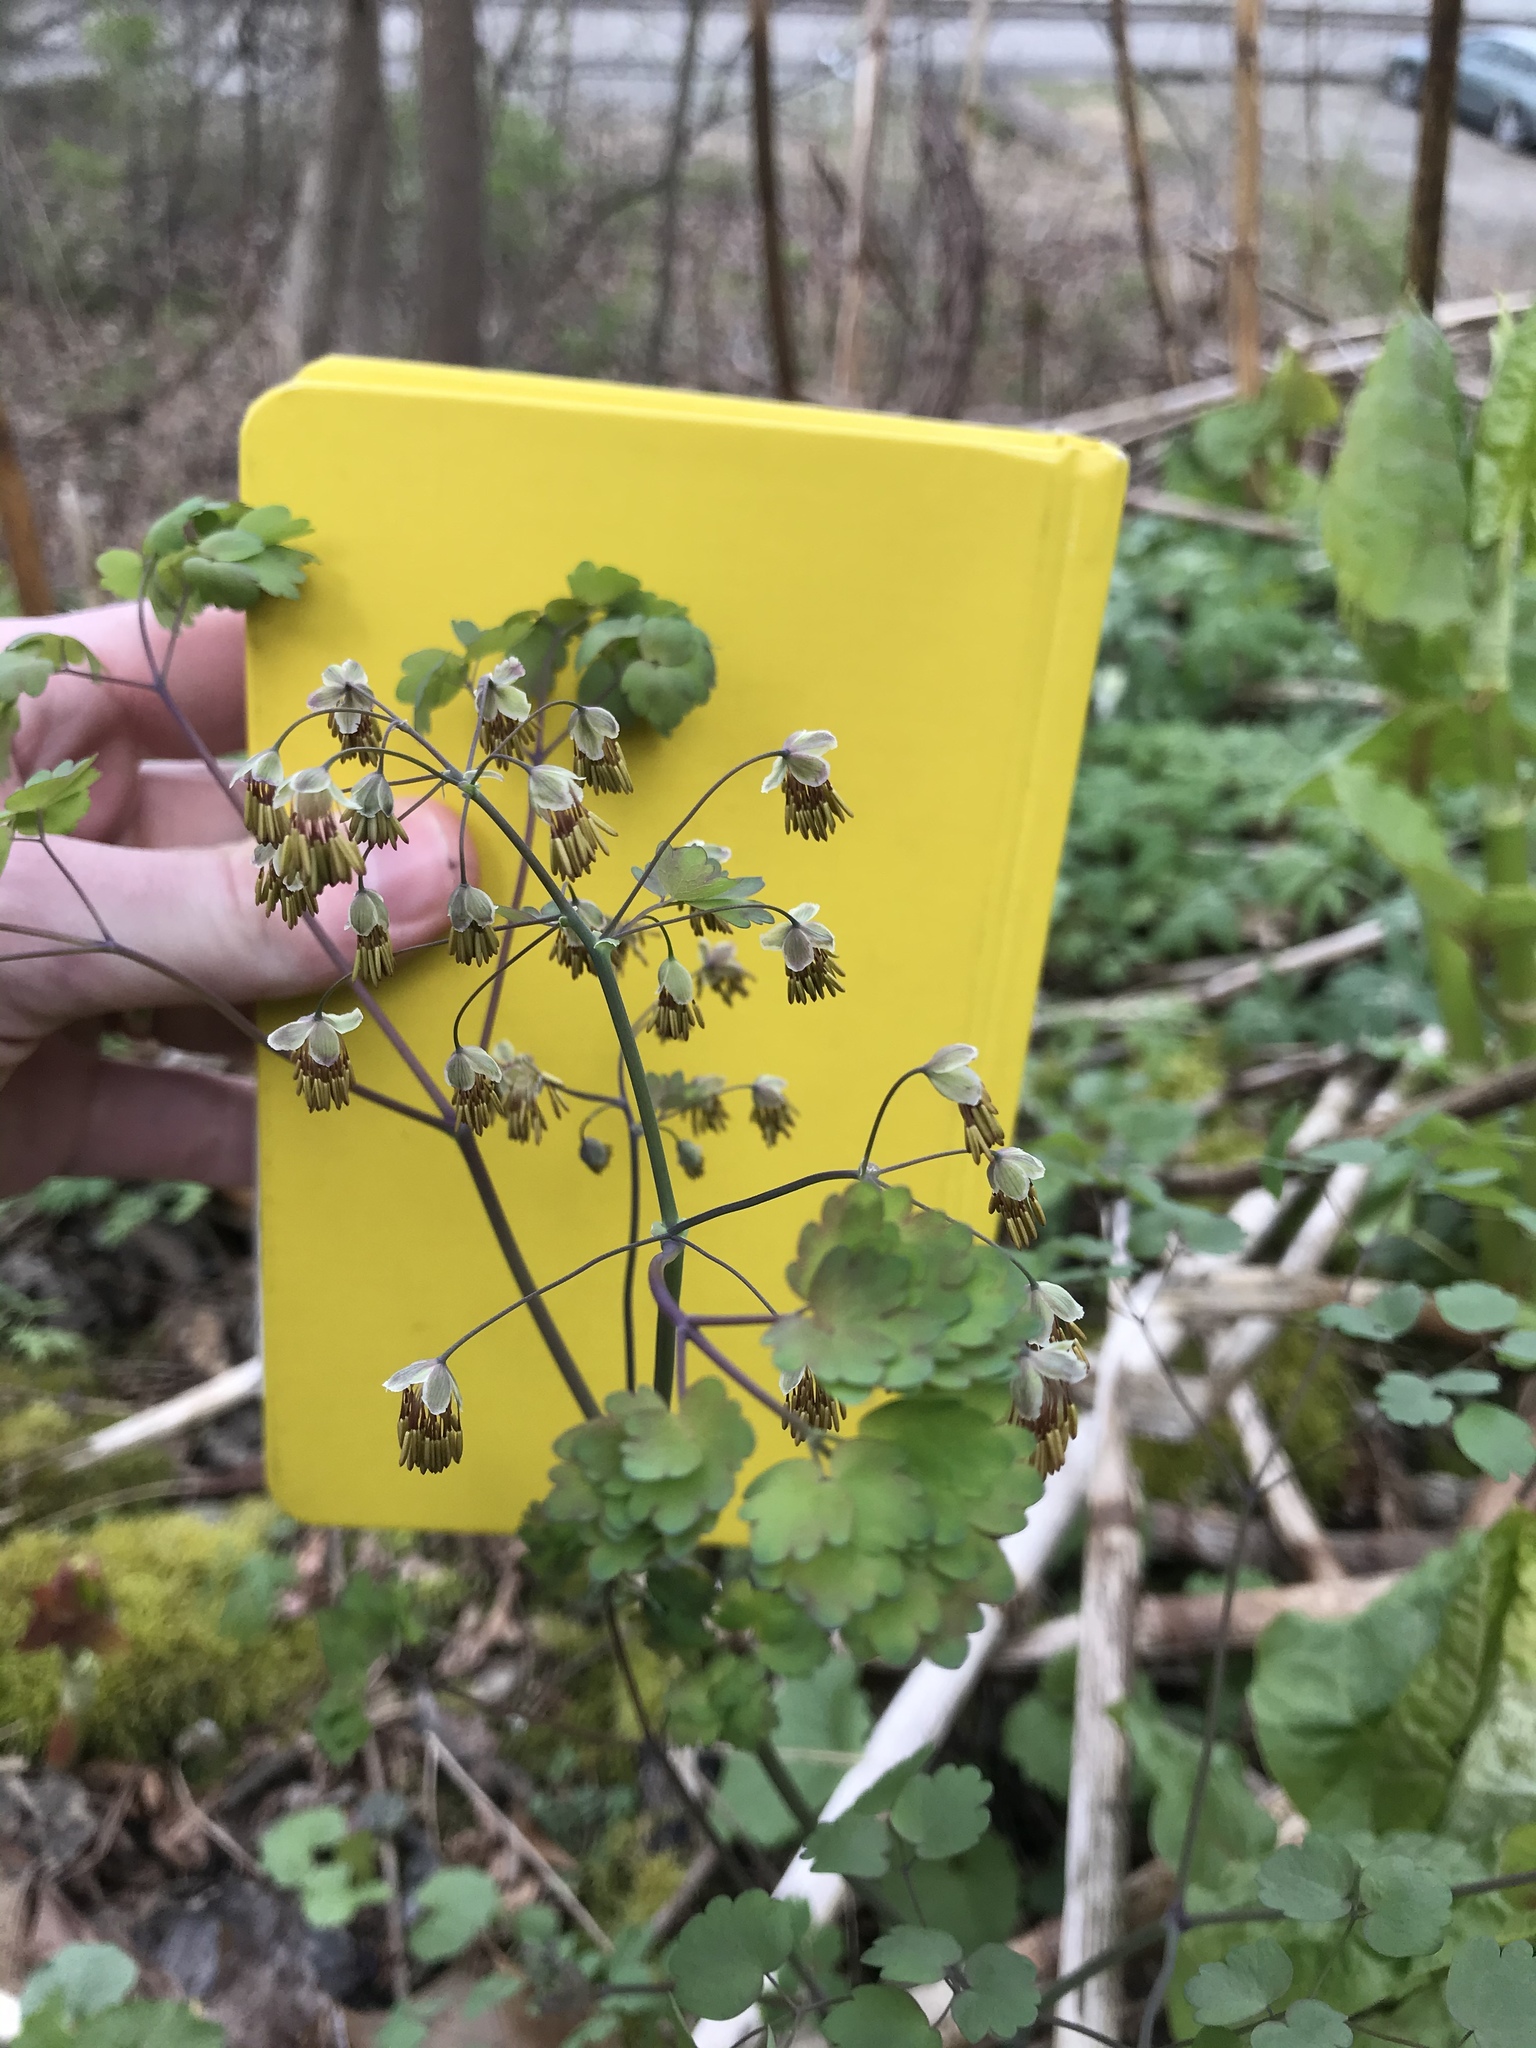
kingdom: Plantae
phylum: Tracheophyta
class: Magnoliopsida
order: Ranunculales
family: Ranunculaceae
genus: Thalictrum
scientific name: Thalictrum dioicum
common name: Early meadow-rue
